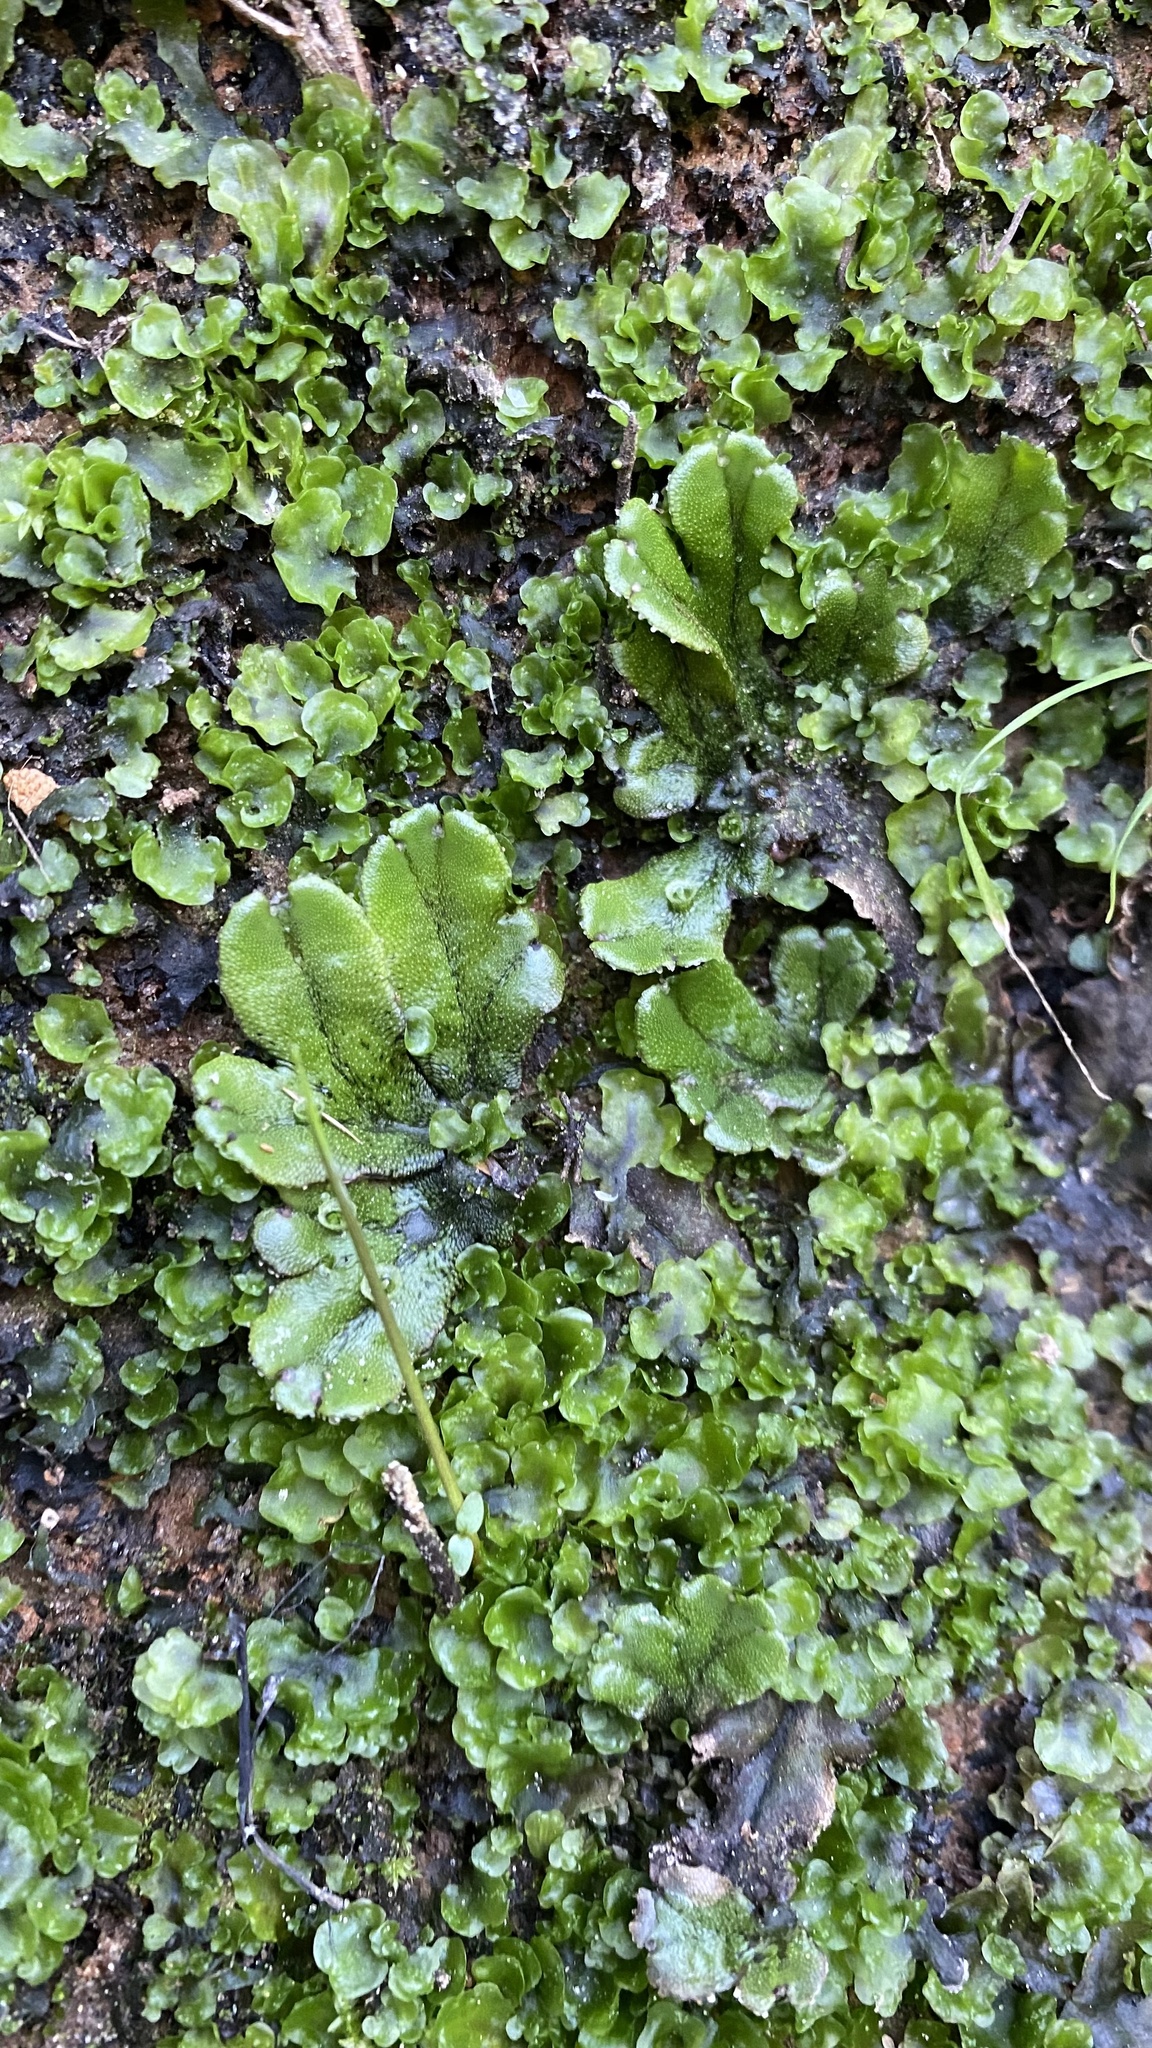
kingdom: Plantae
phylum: Marchantiophyta
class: Marchantiopsida
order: Marchantiales
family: Marchantiaceae
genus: Marchantia
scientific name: Marchantia polymorpha
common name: Common liverwort
